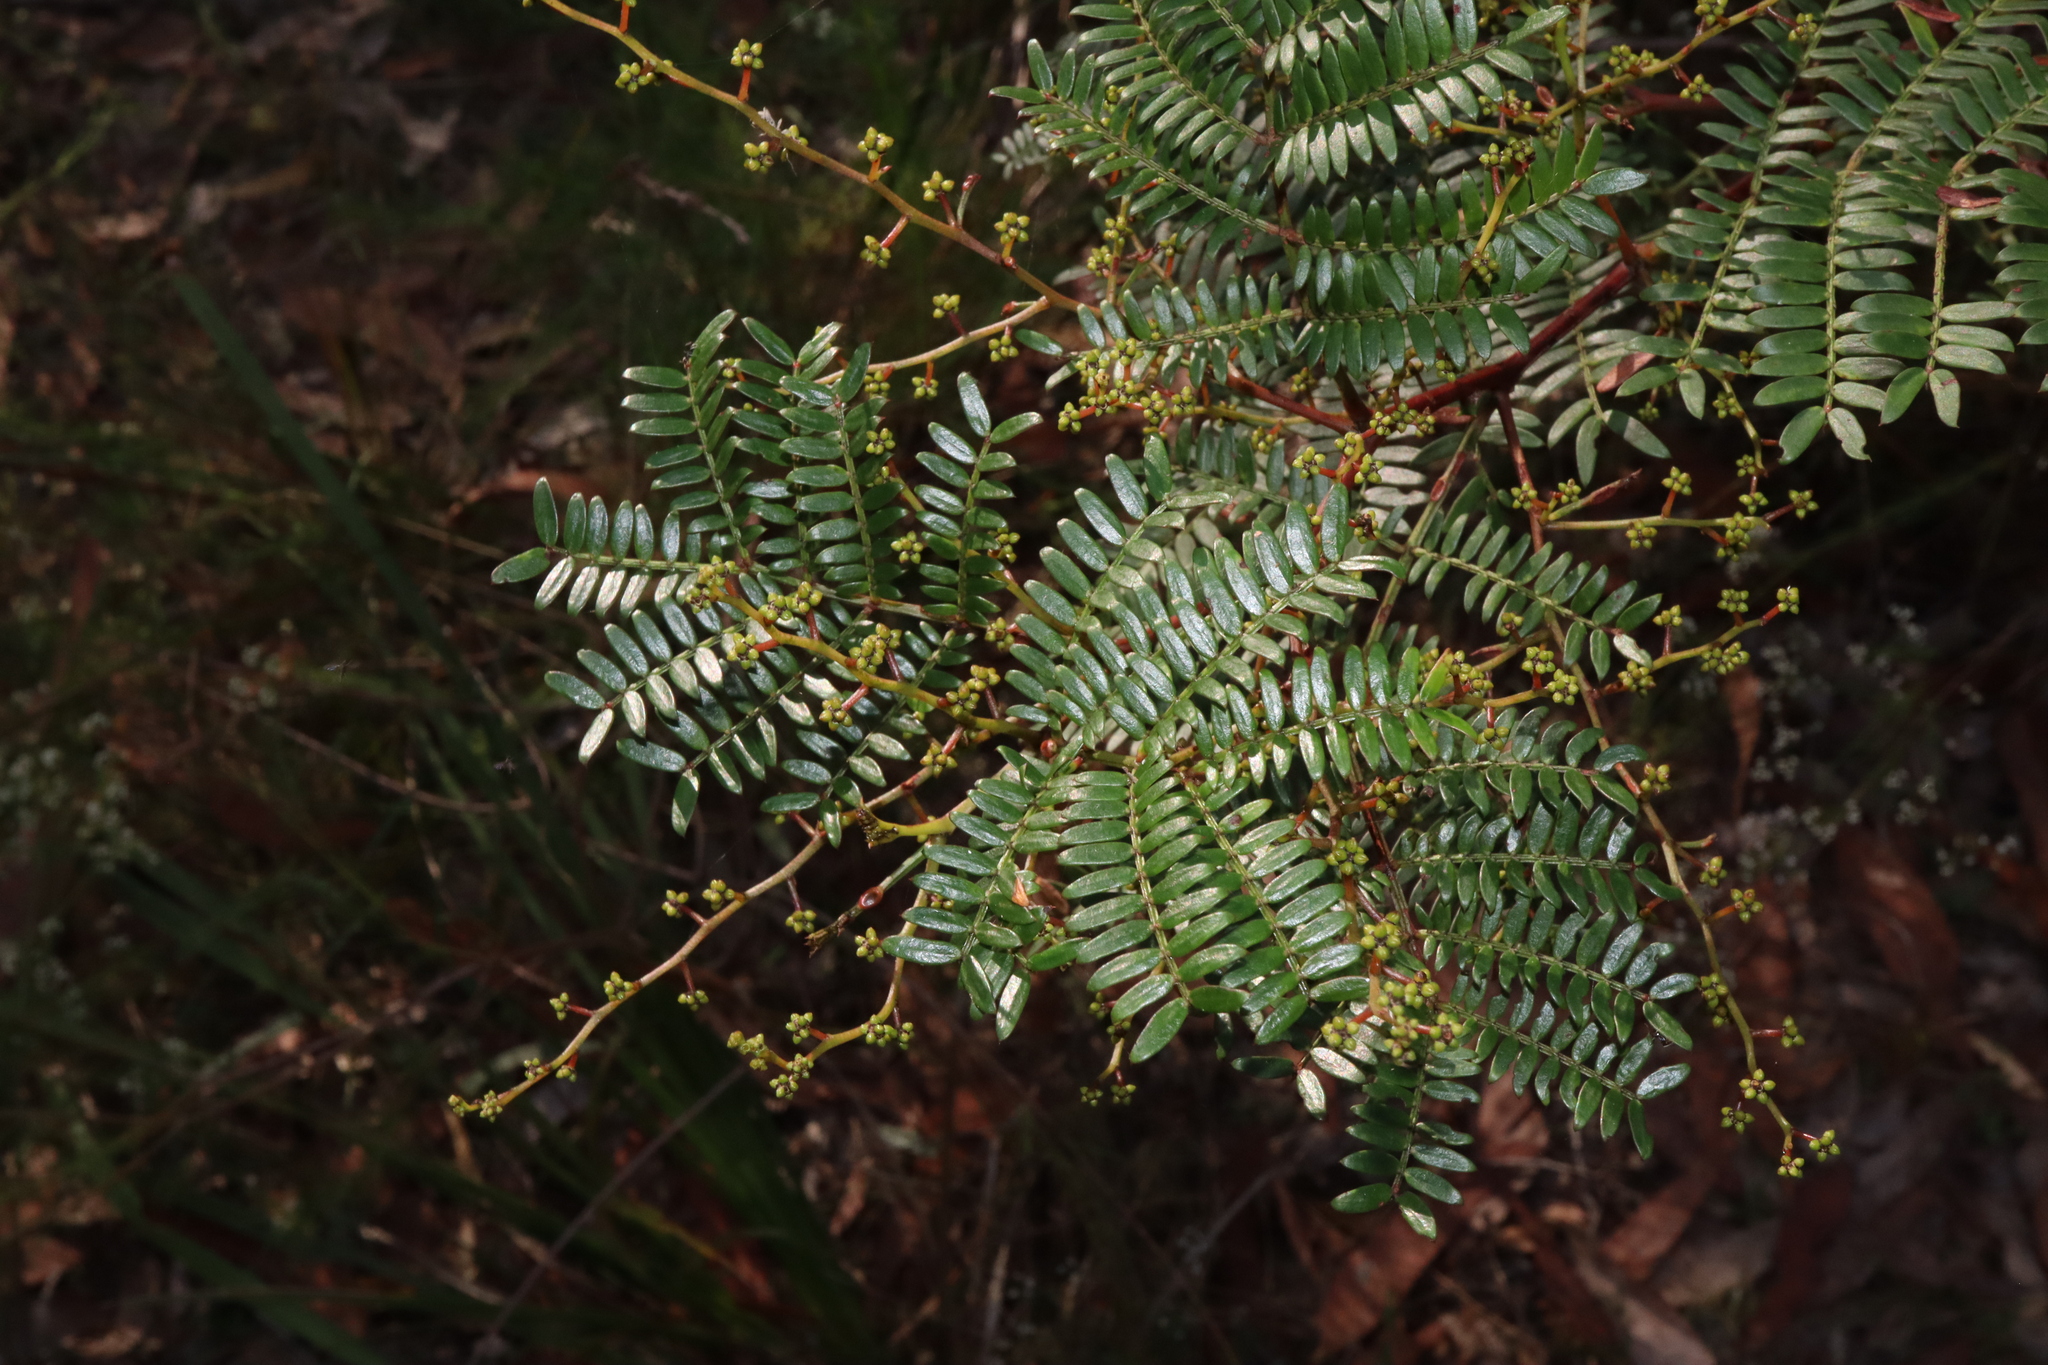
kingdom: Plantae
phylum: Tracheophyta
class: Magnoliopsida
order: Fabales
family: Fabaceae
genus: Acacia
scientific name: Acacia terminalis
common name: Cedar wattle
